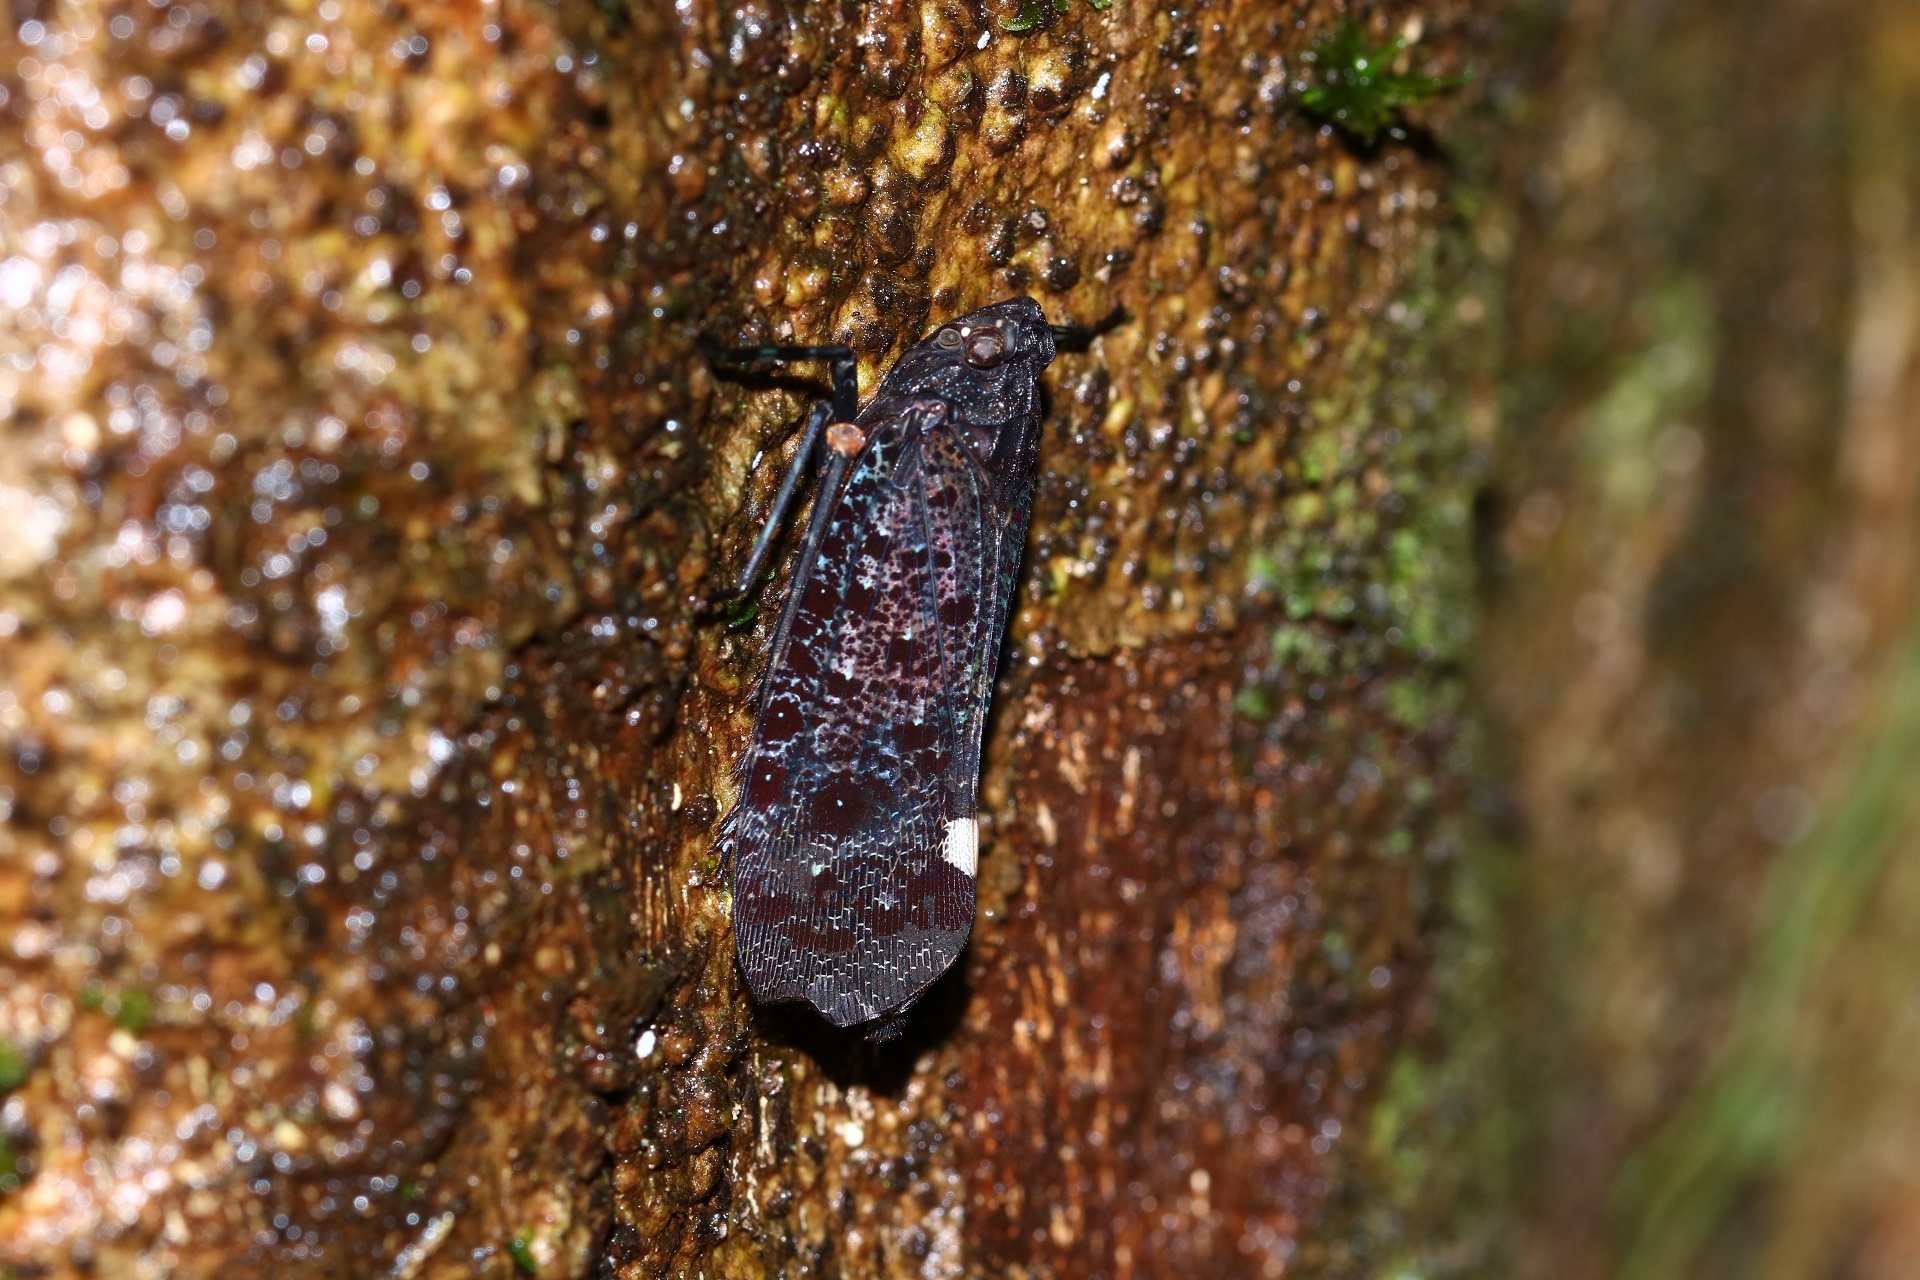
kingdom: Animalia
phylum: Arthropoda
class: Insecta
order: Hemiptera
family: Fulgoridae
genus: Penthicodes
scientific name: Penthicodes bimaculata
